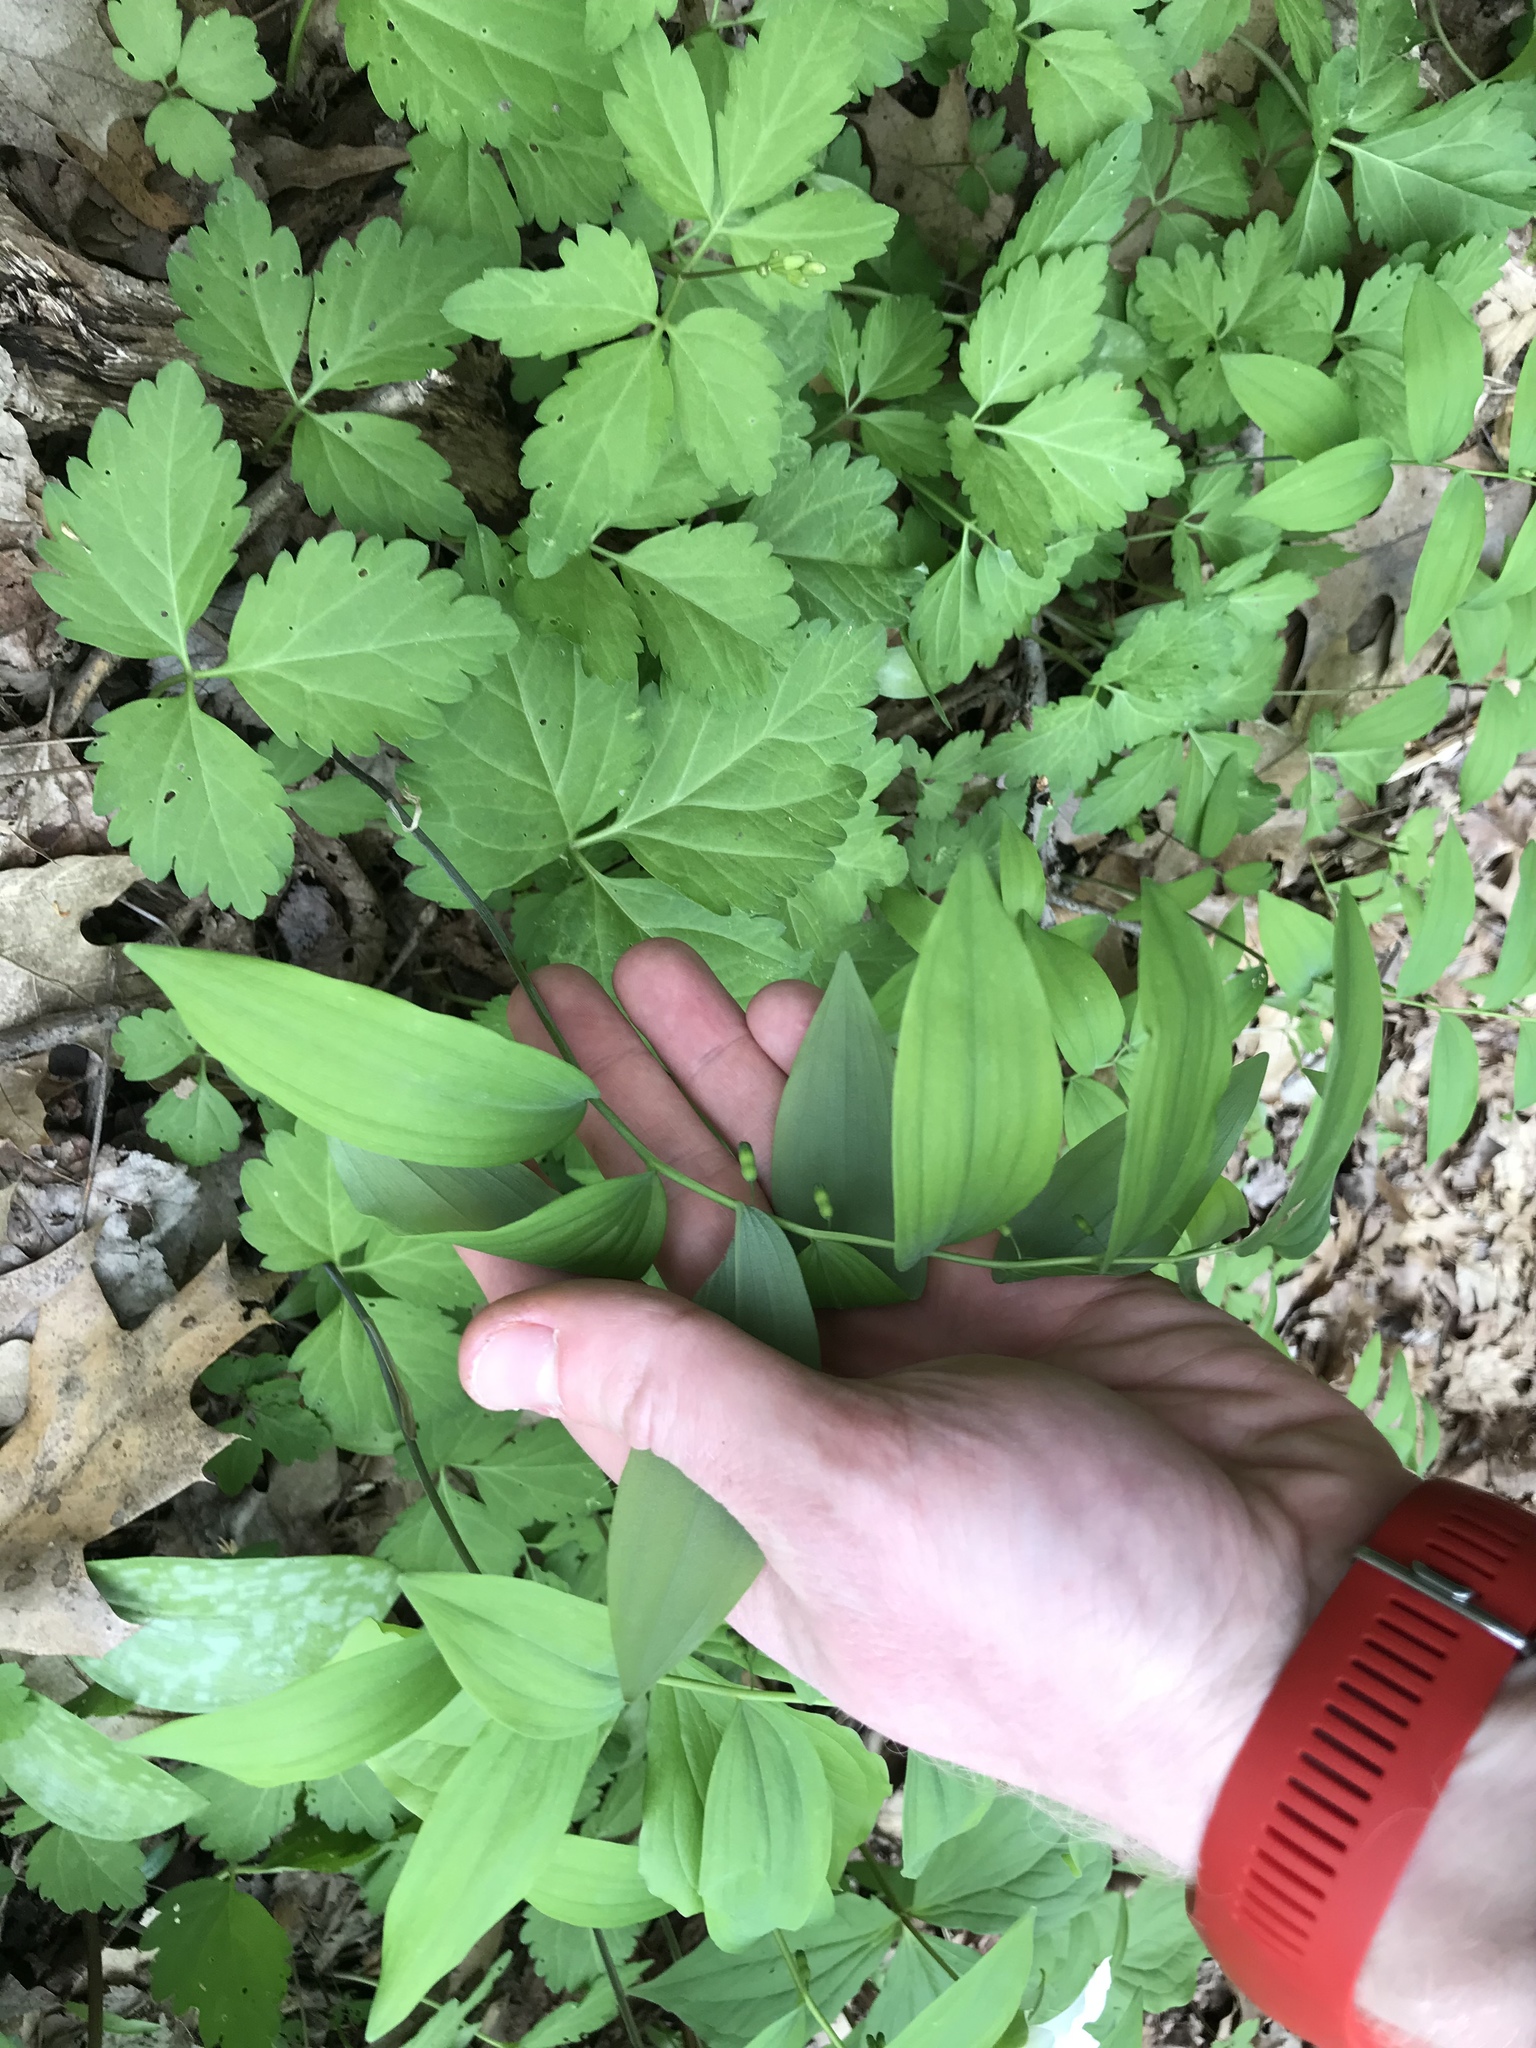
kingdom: Plantae
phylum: Tracheophyta
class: Liliopsida
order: Asparagales
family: Asparagaceae
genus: Polygonatum
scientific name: Polygonatum pubescens
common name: Downy solomon's seal
